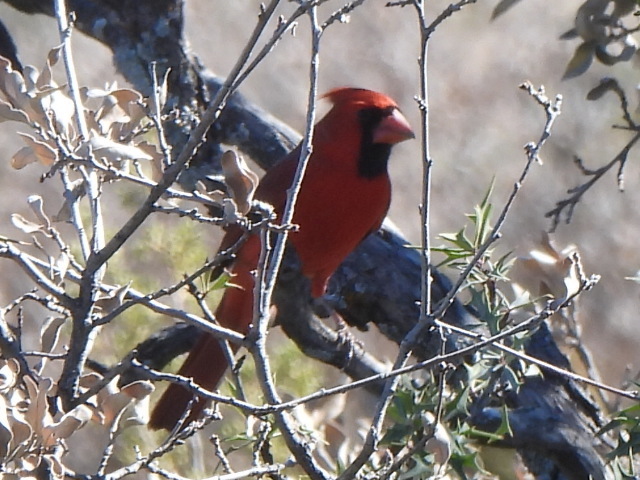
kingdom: Animalia
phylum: Chordata
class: Aves
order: Passeriformes
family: Cardinalidae
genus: Cardinalis
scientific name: Cardinalis cardinalis
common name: Northern cardinal
